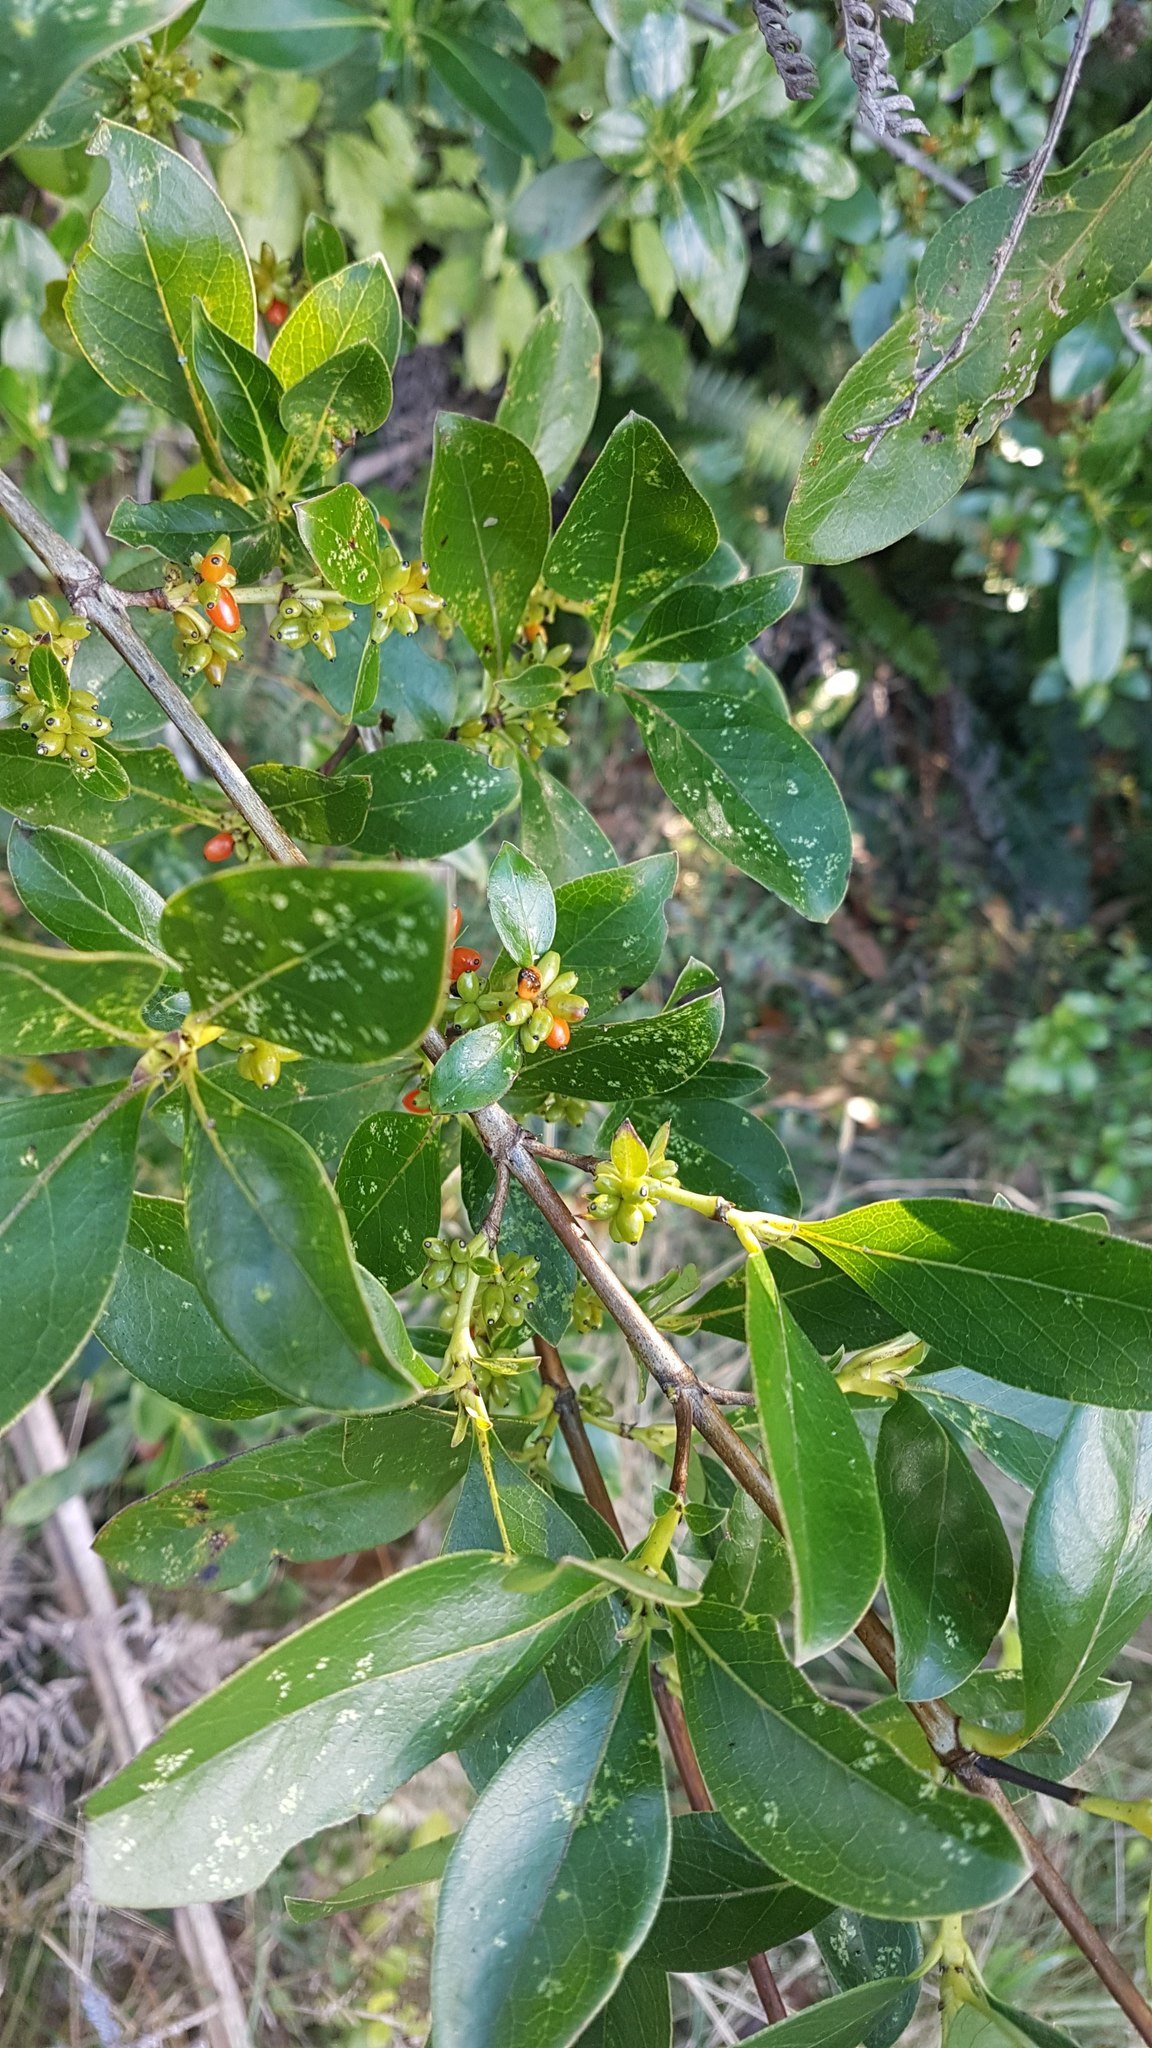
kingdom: Plantae
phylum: Tracheophyta
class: Magnoliopsida
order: Gentianales
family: Rubiaceae
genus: Coprosma
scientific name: Coprosma robusta
